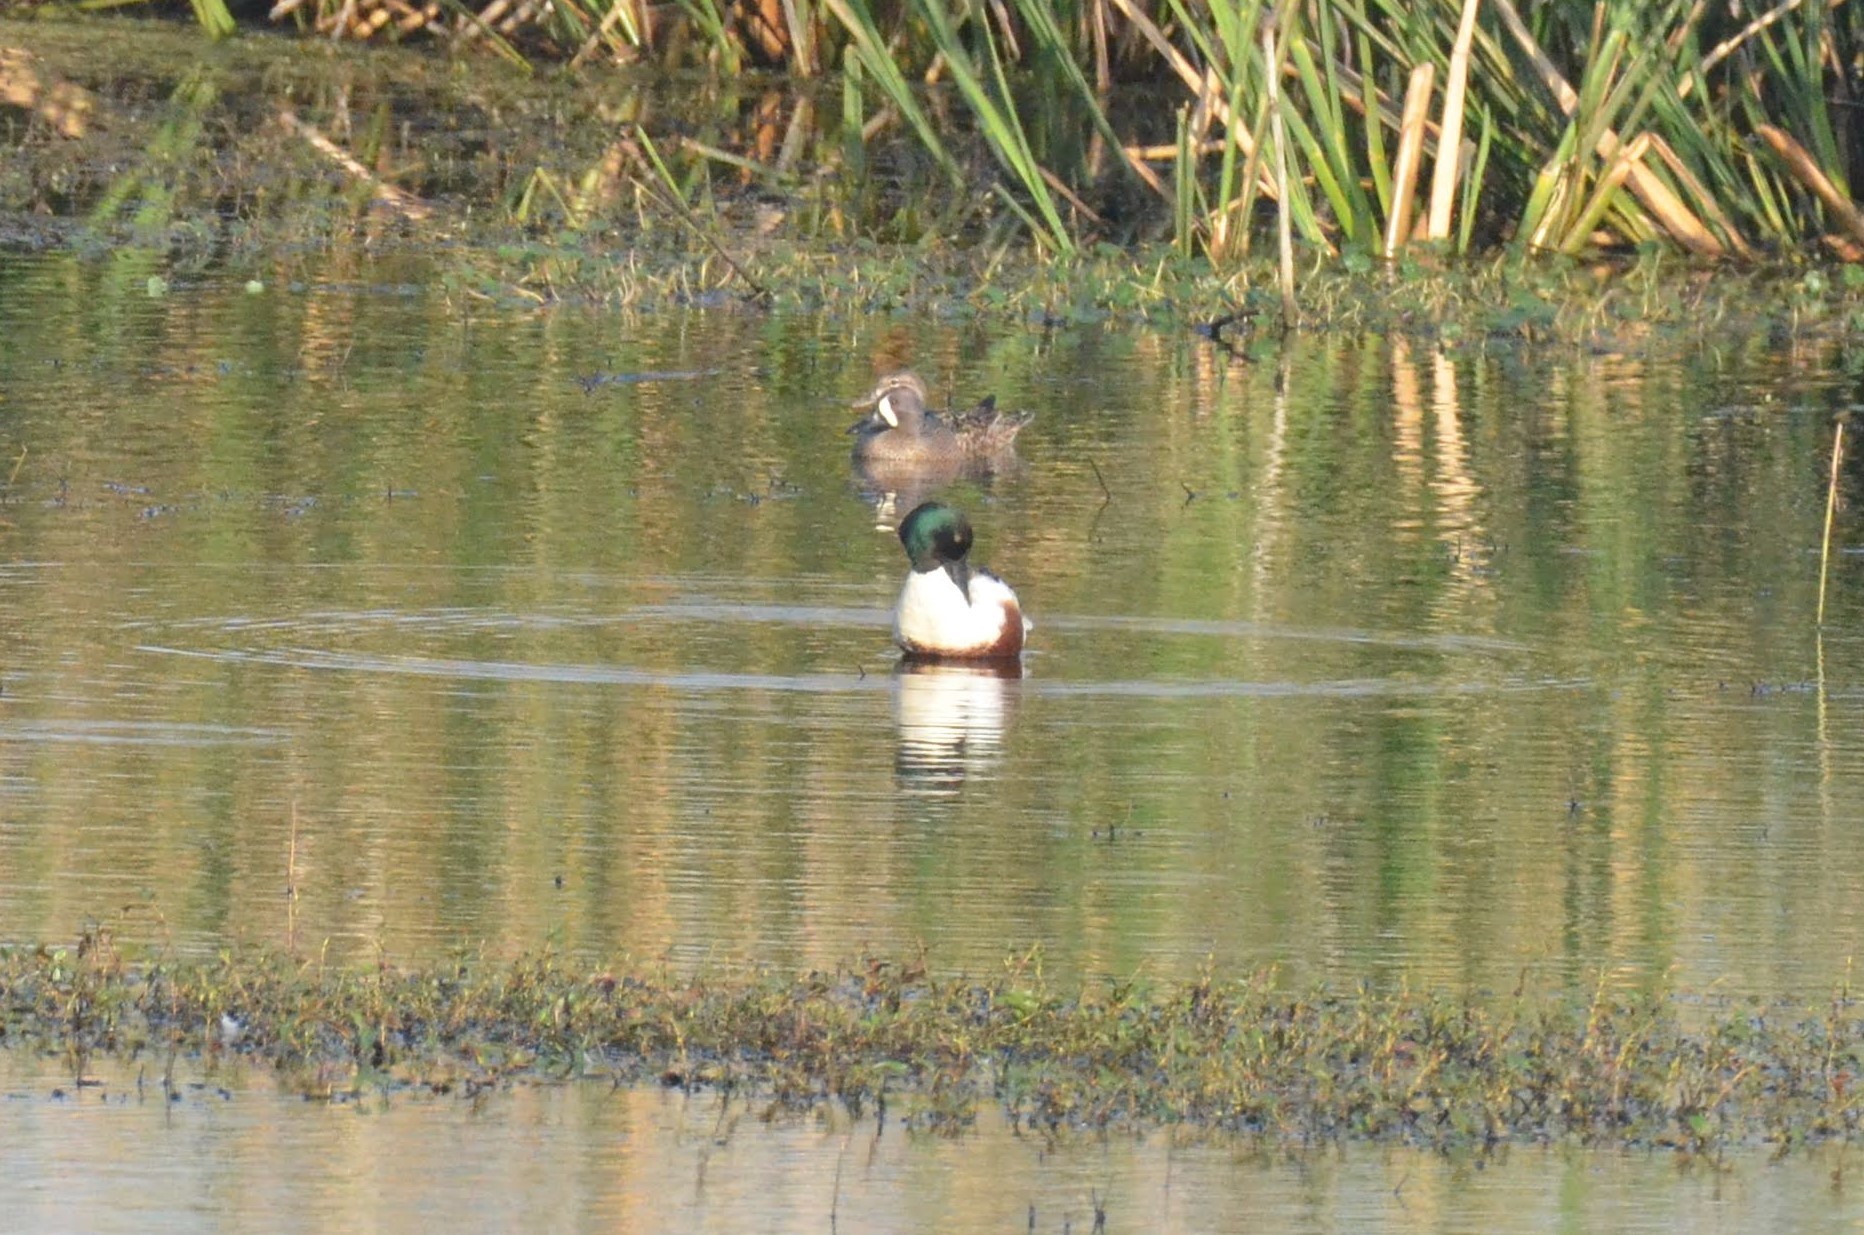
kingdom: Animalia
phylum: Chordata
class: Aves
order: Anseriformes
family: Anatidae
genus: Spatula
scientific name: Spatula clypeata
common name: Northern shoveler
